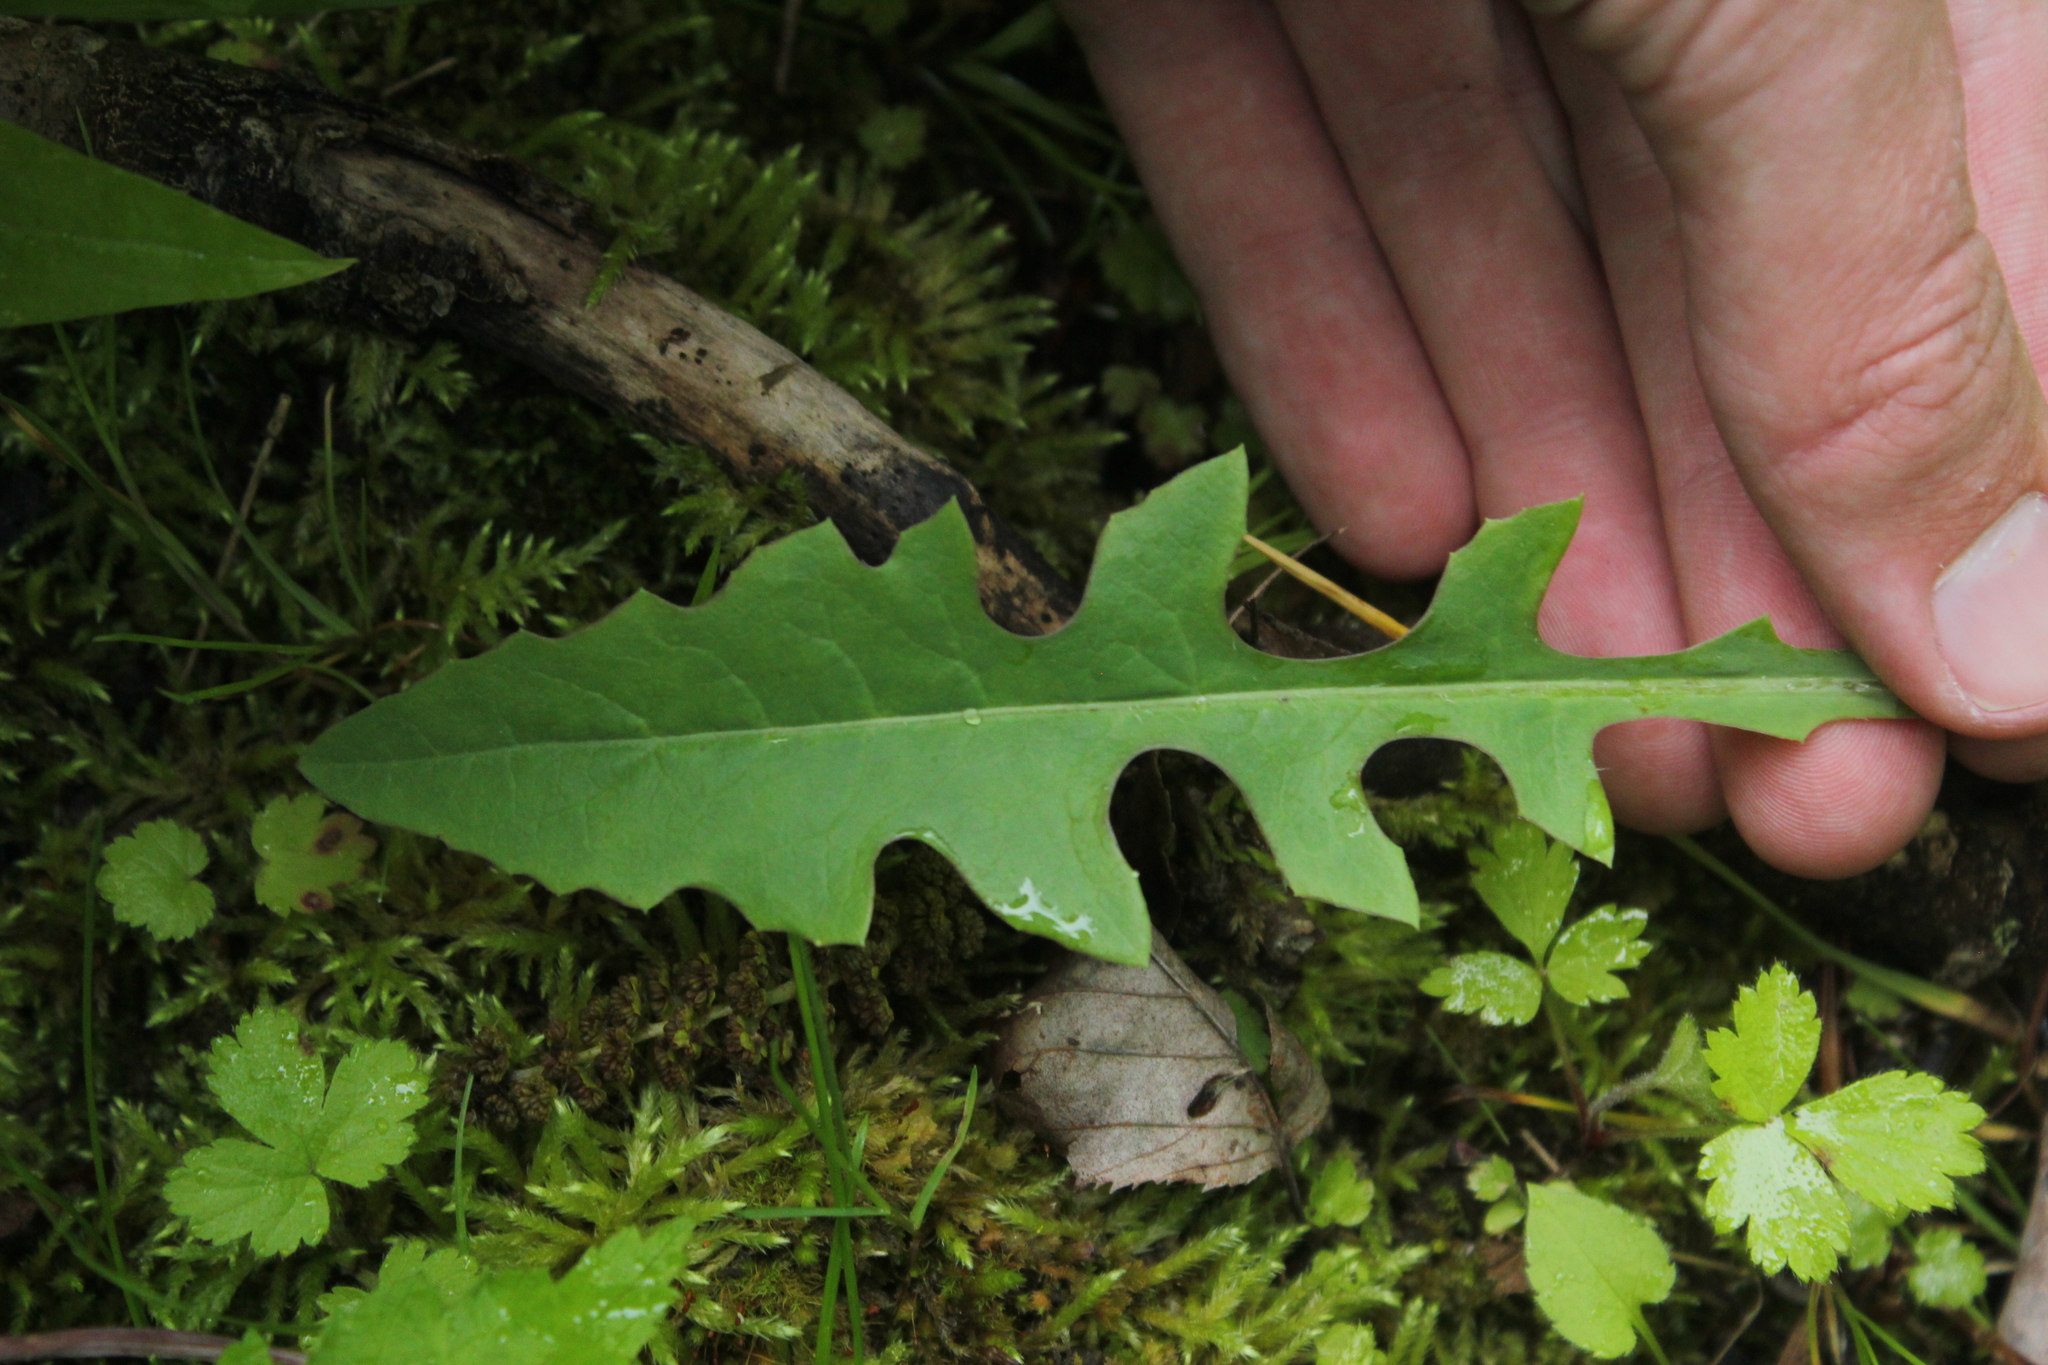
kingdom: Plantae
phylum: Tracheophyta
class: Magnoliopsida
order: Asterales
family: Asteraceae
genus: Lactuca
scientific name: Lactuca canadensis
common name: Canada lettuce
